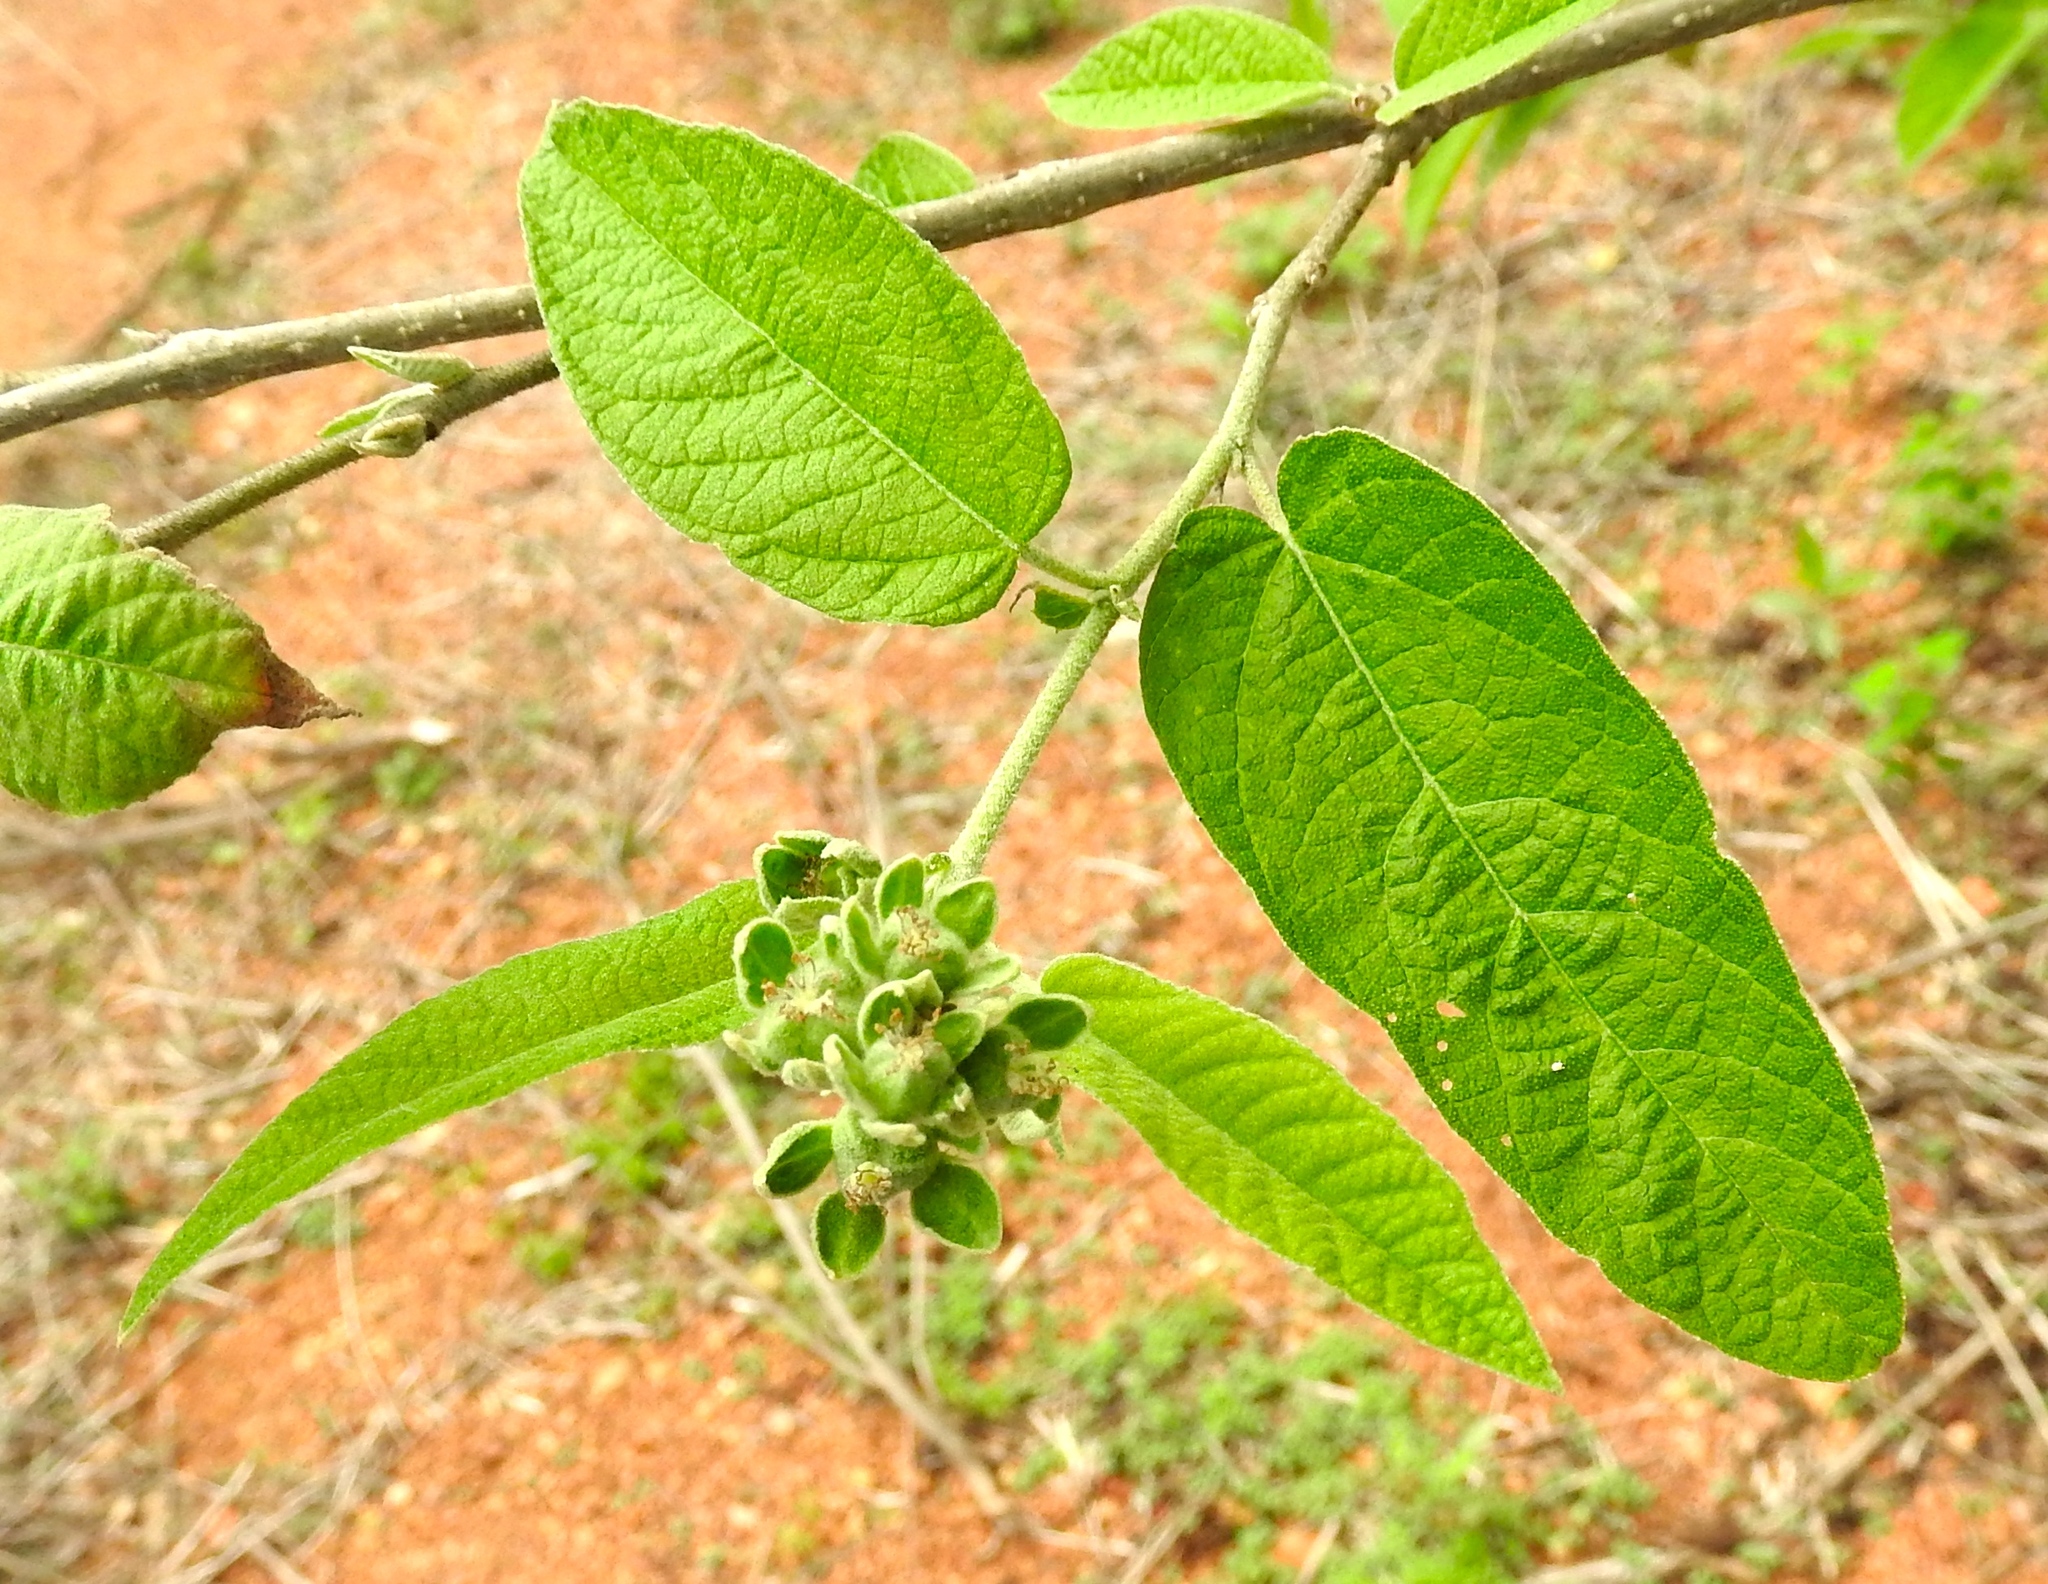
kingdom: Plantae
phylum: Tracheophyta
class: Magnoliopsida
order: Malpighiales
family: Euphorbiaceae
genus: Croton
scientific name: Croton alamosanus
